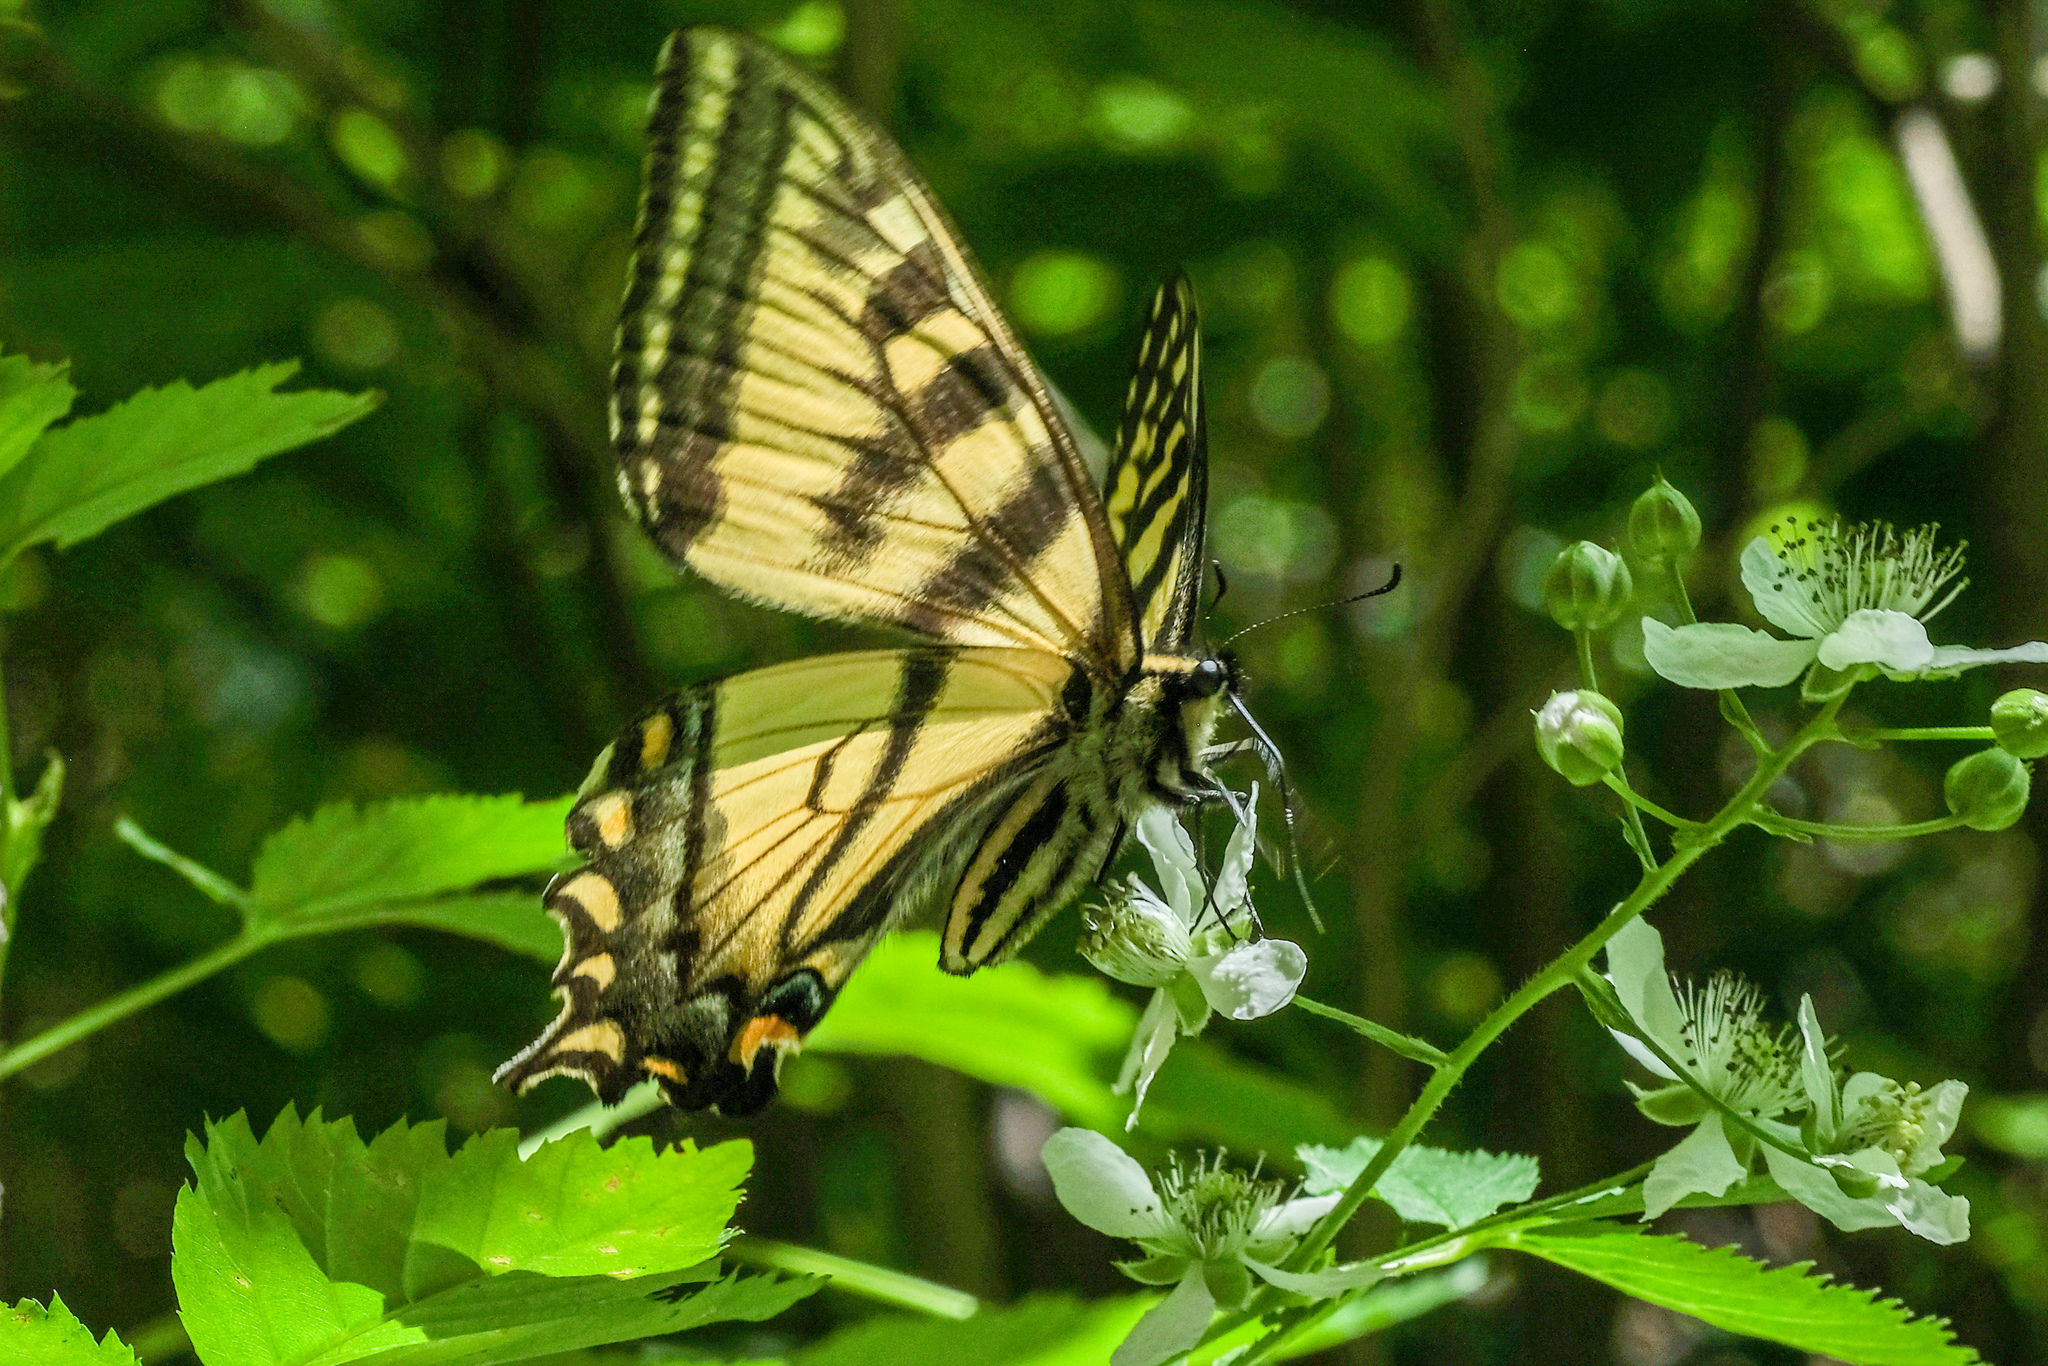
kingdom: Animalia
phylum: Arthropoda
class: Insecta
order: Lepidoptera
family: Papilionidae
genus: Papilio
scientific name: Papilio canadensis
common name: Canadian tiger swallowtail
